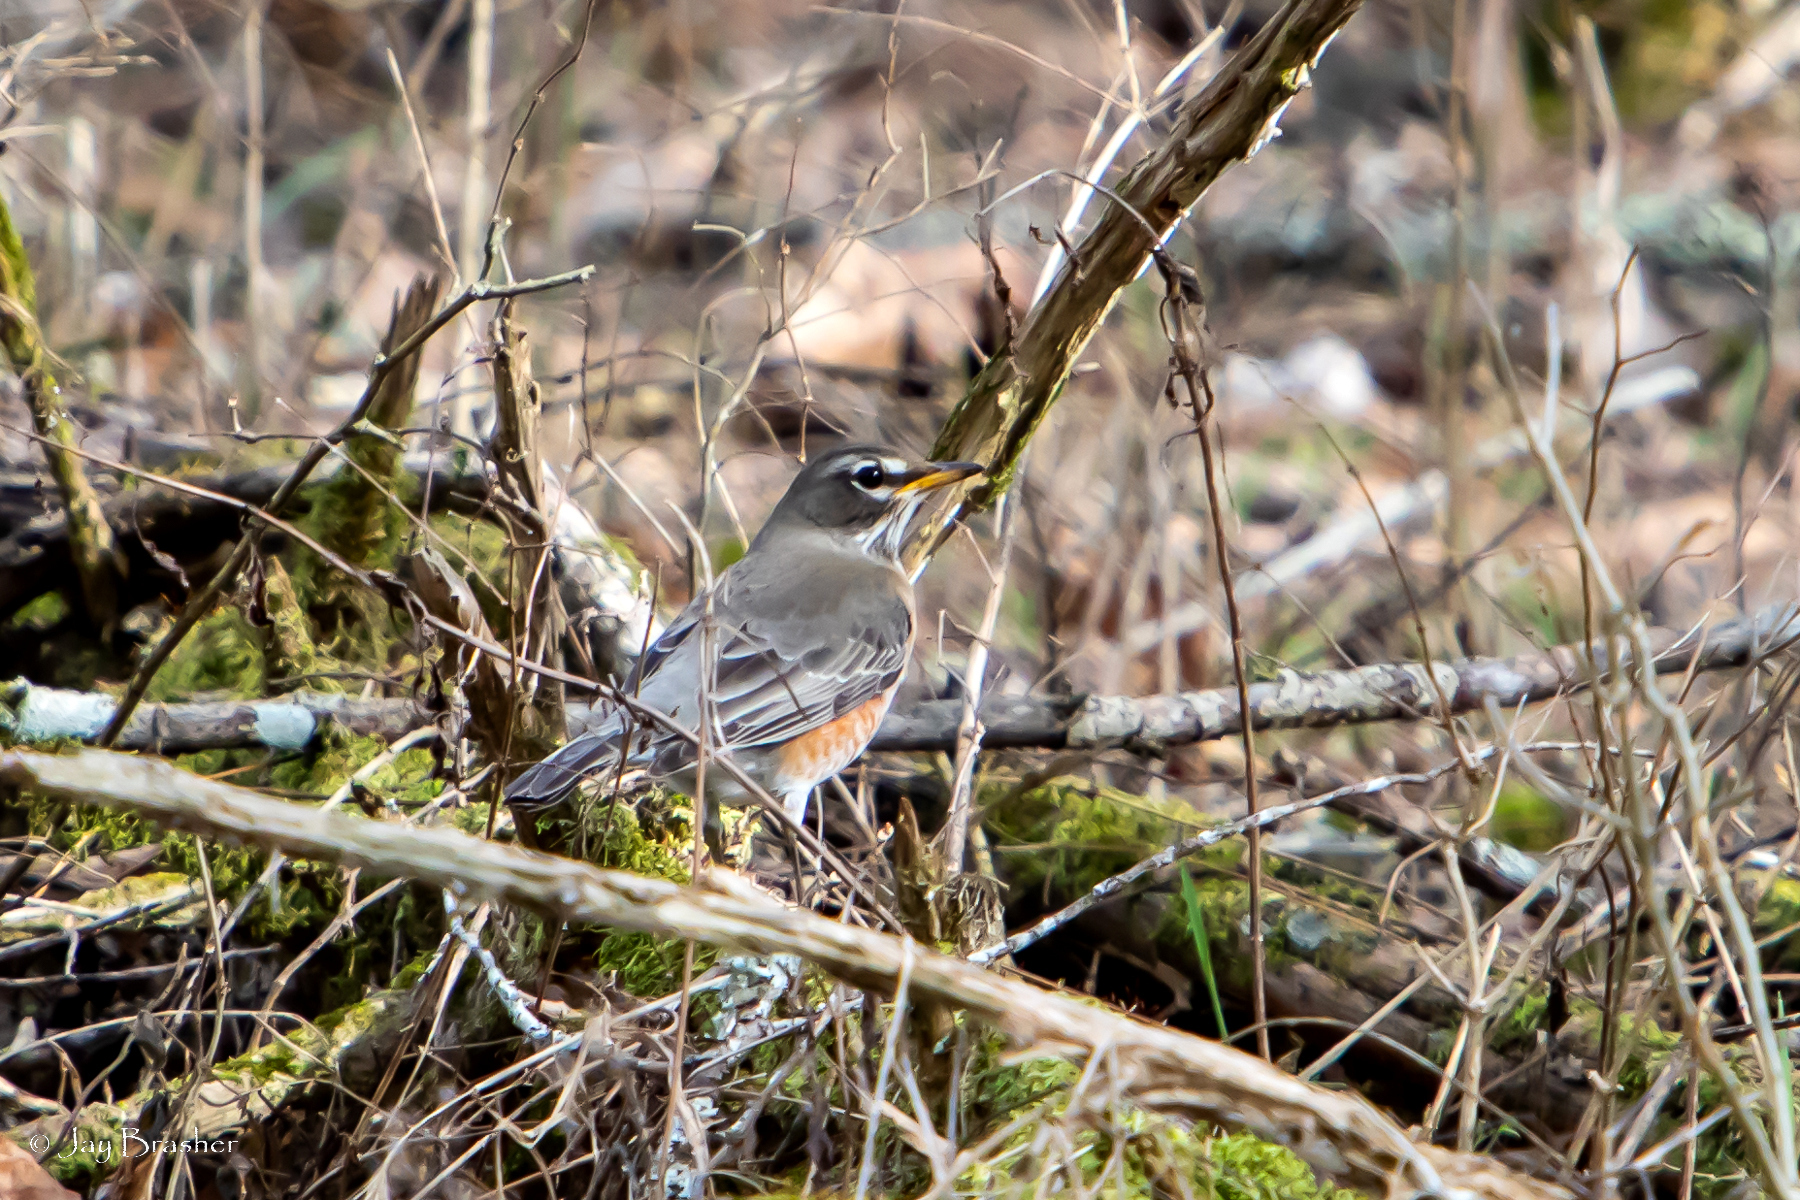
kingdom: Animalia
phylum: Chordata
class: Aves
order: Passeriformes
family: Turdidae
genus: Turdus
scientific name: Turdus migratorius
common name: American robin
